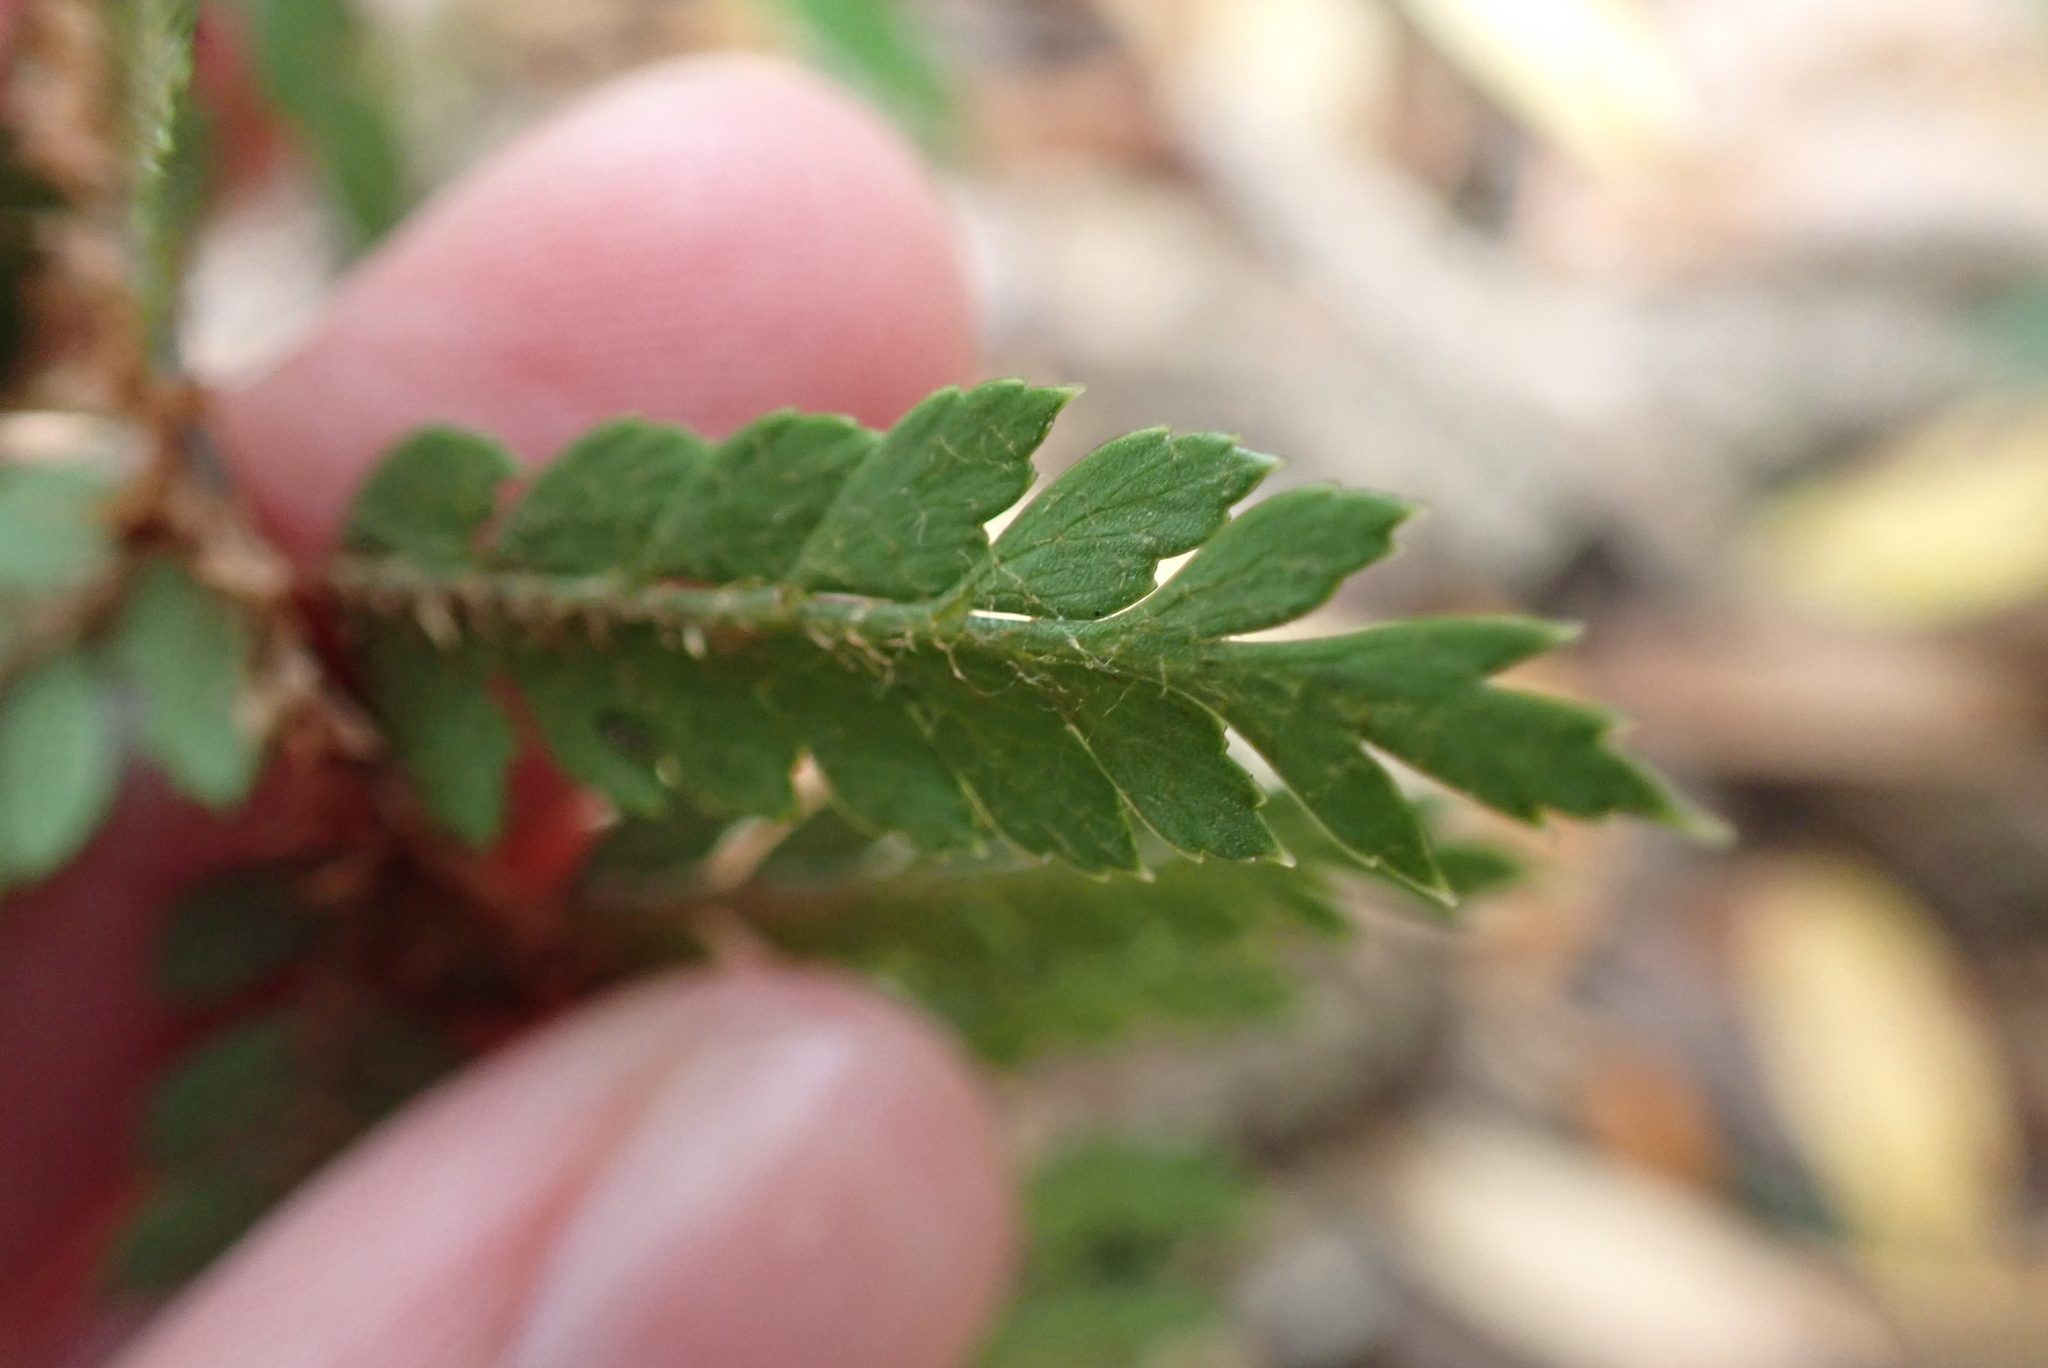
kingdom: Plantae
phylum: Tracheophyta
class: Polypodiopsida
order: Polypodiales
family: Dryopteridaceae
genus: Polystichum
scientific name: Polystichum vestitum
